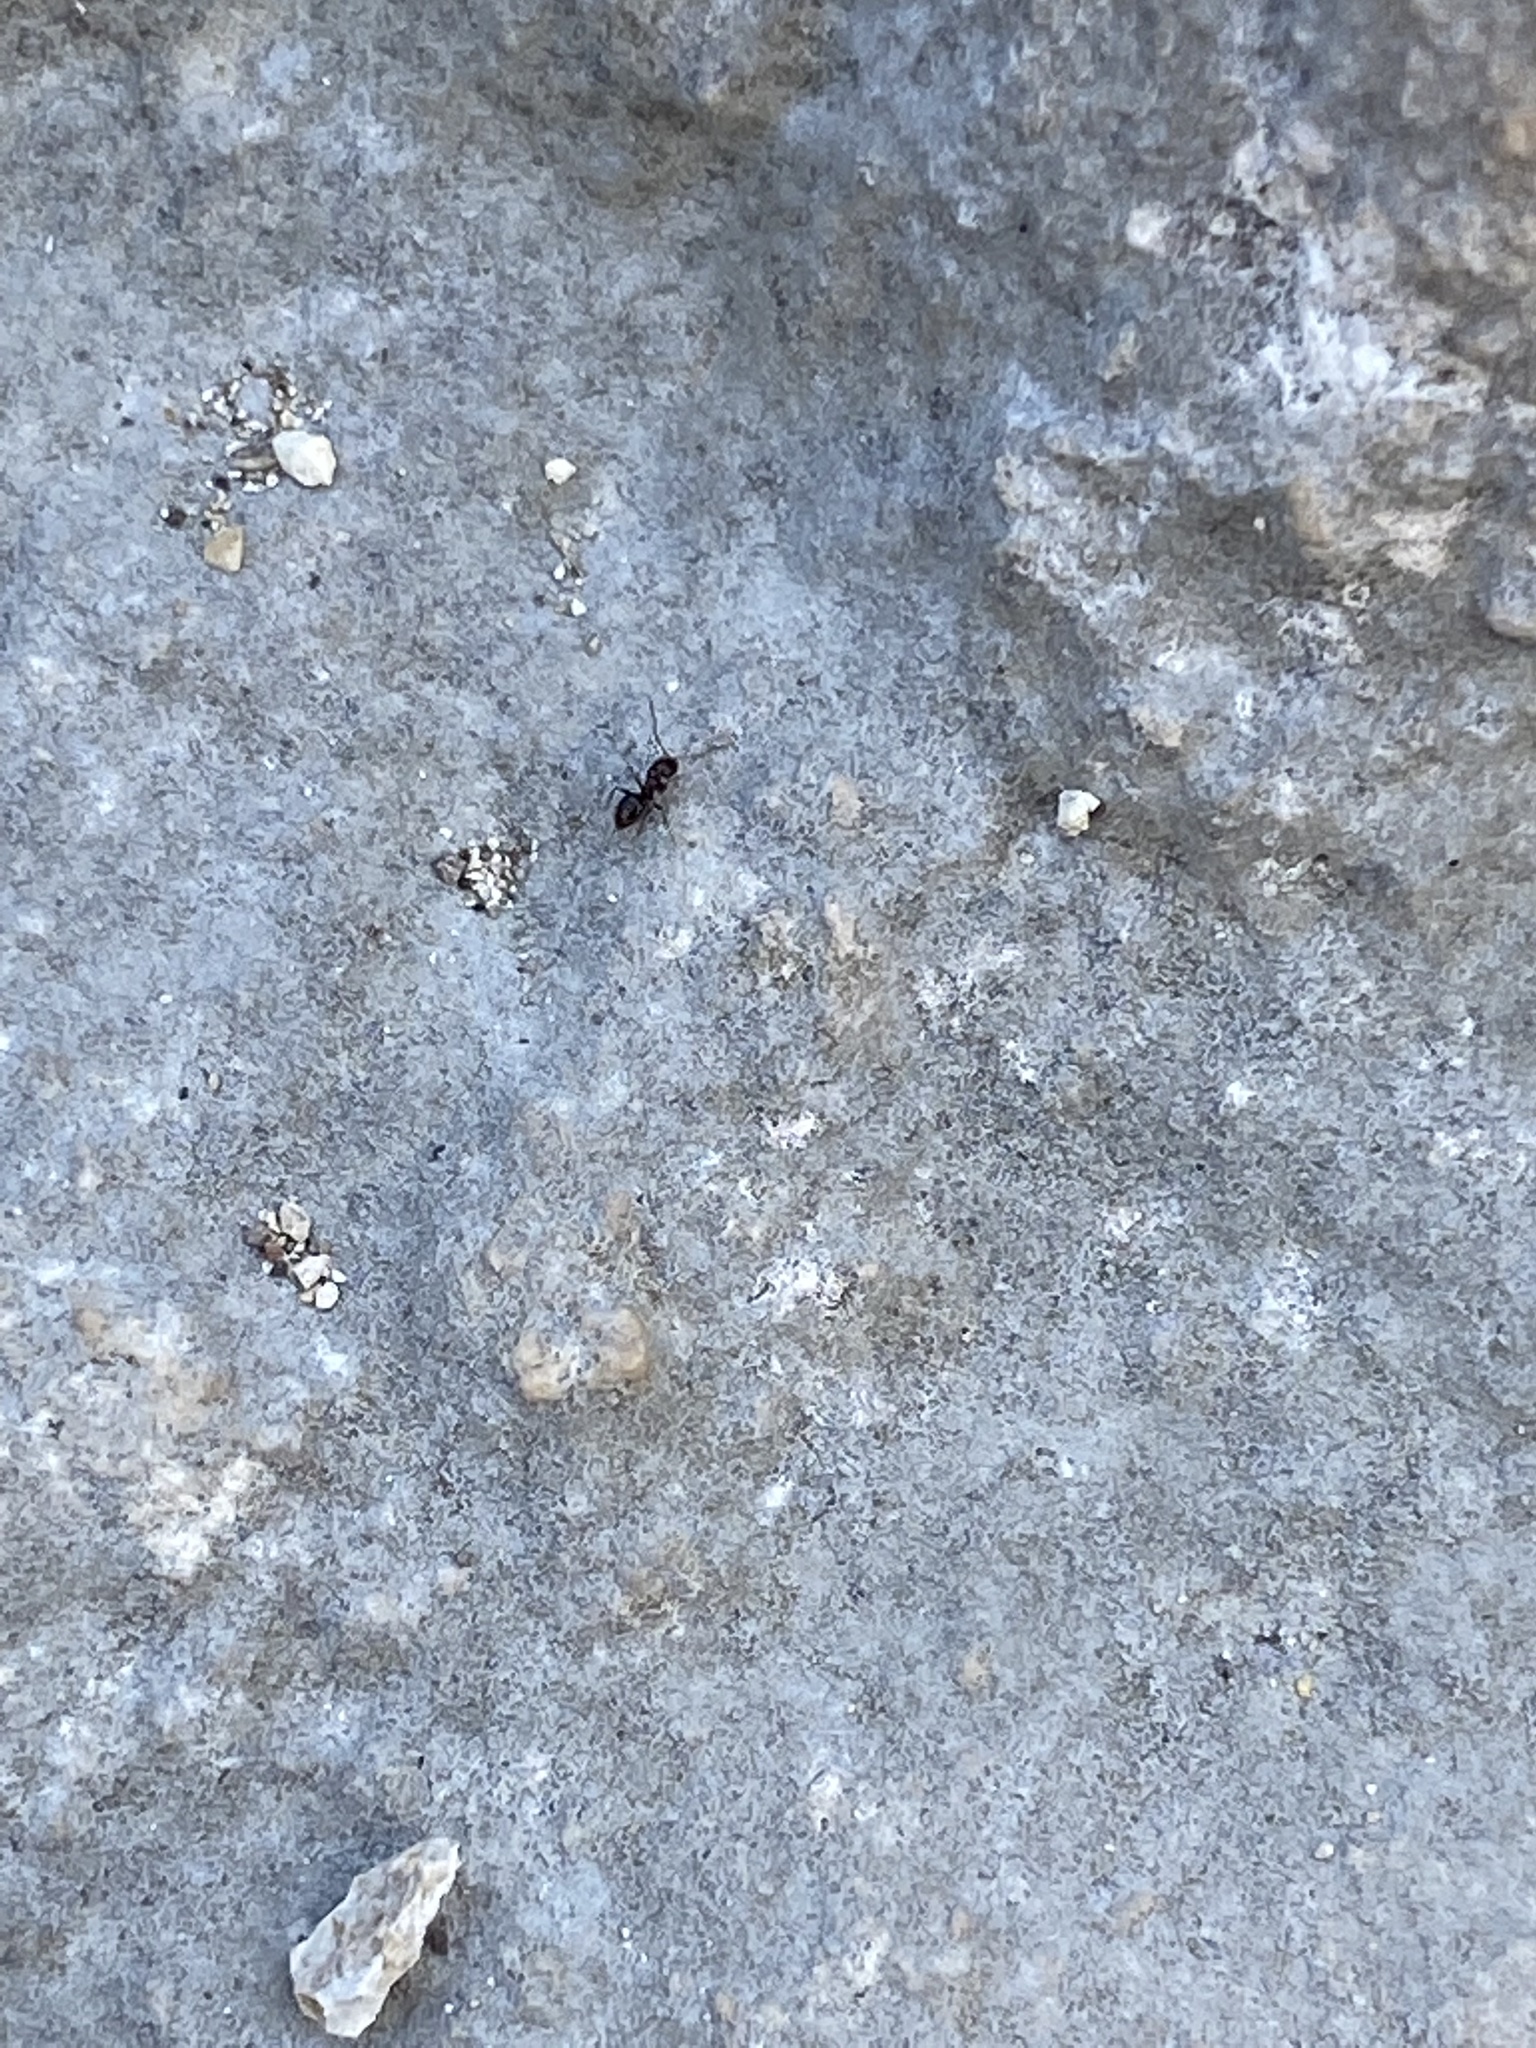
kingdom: Animalia
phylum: Arthropoda
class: Insecta
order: Hymenoptera
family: Formicidae
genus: Brachymyrmex
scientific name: Brachymyrmex patagonicus
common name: Dark rover ant
